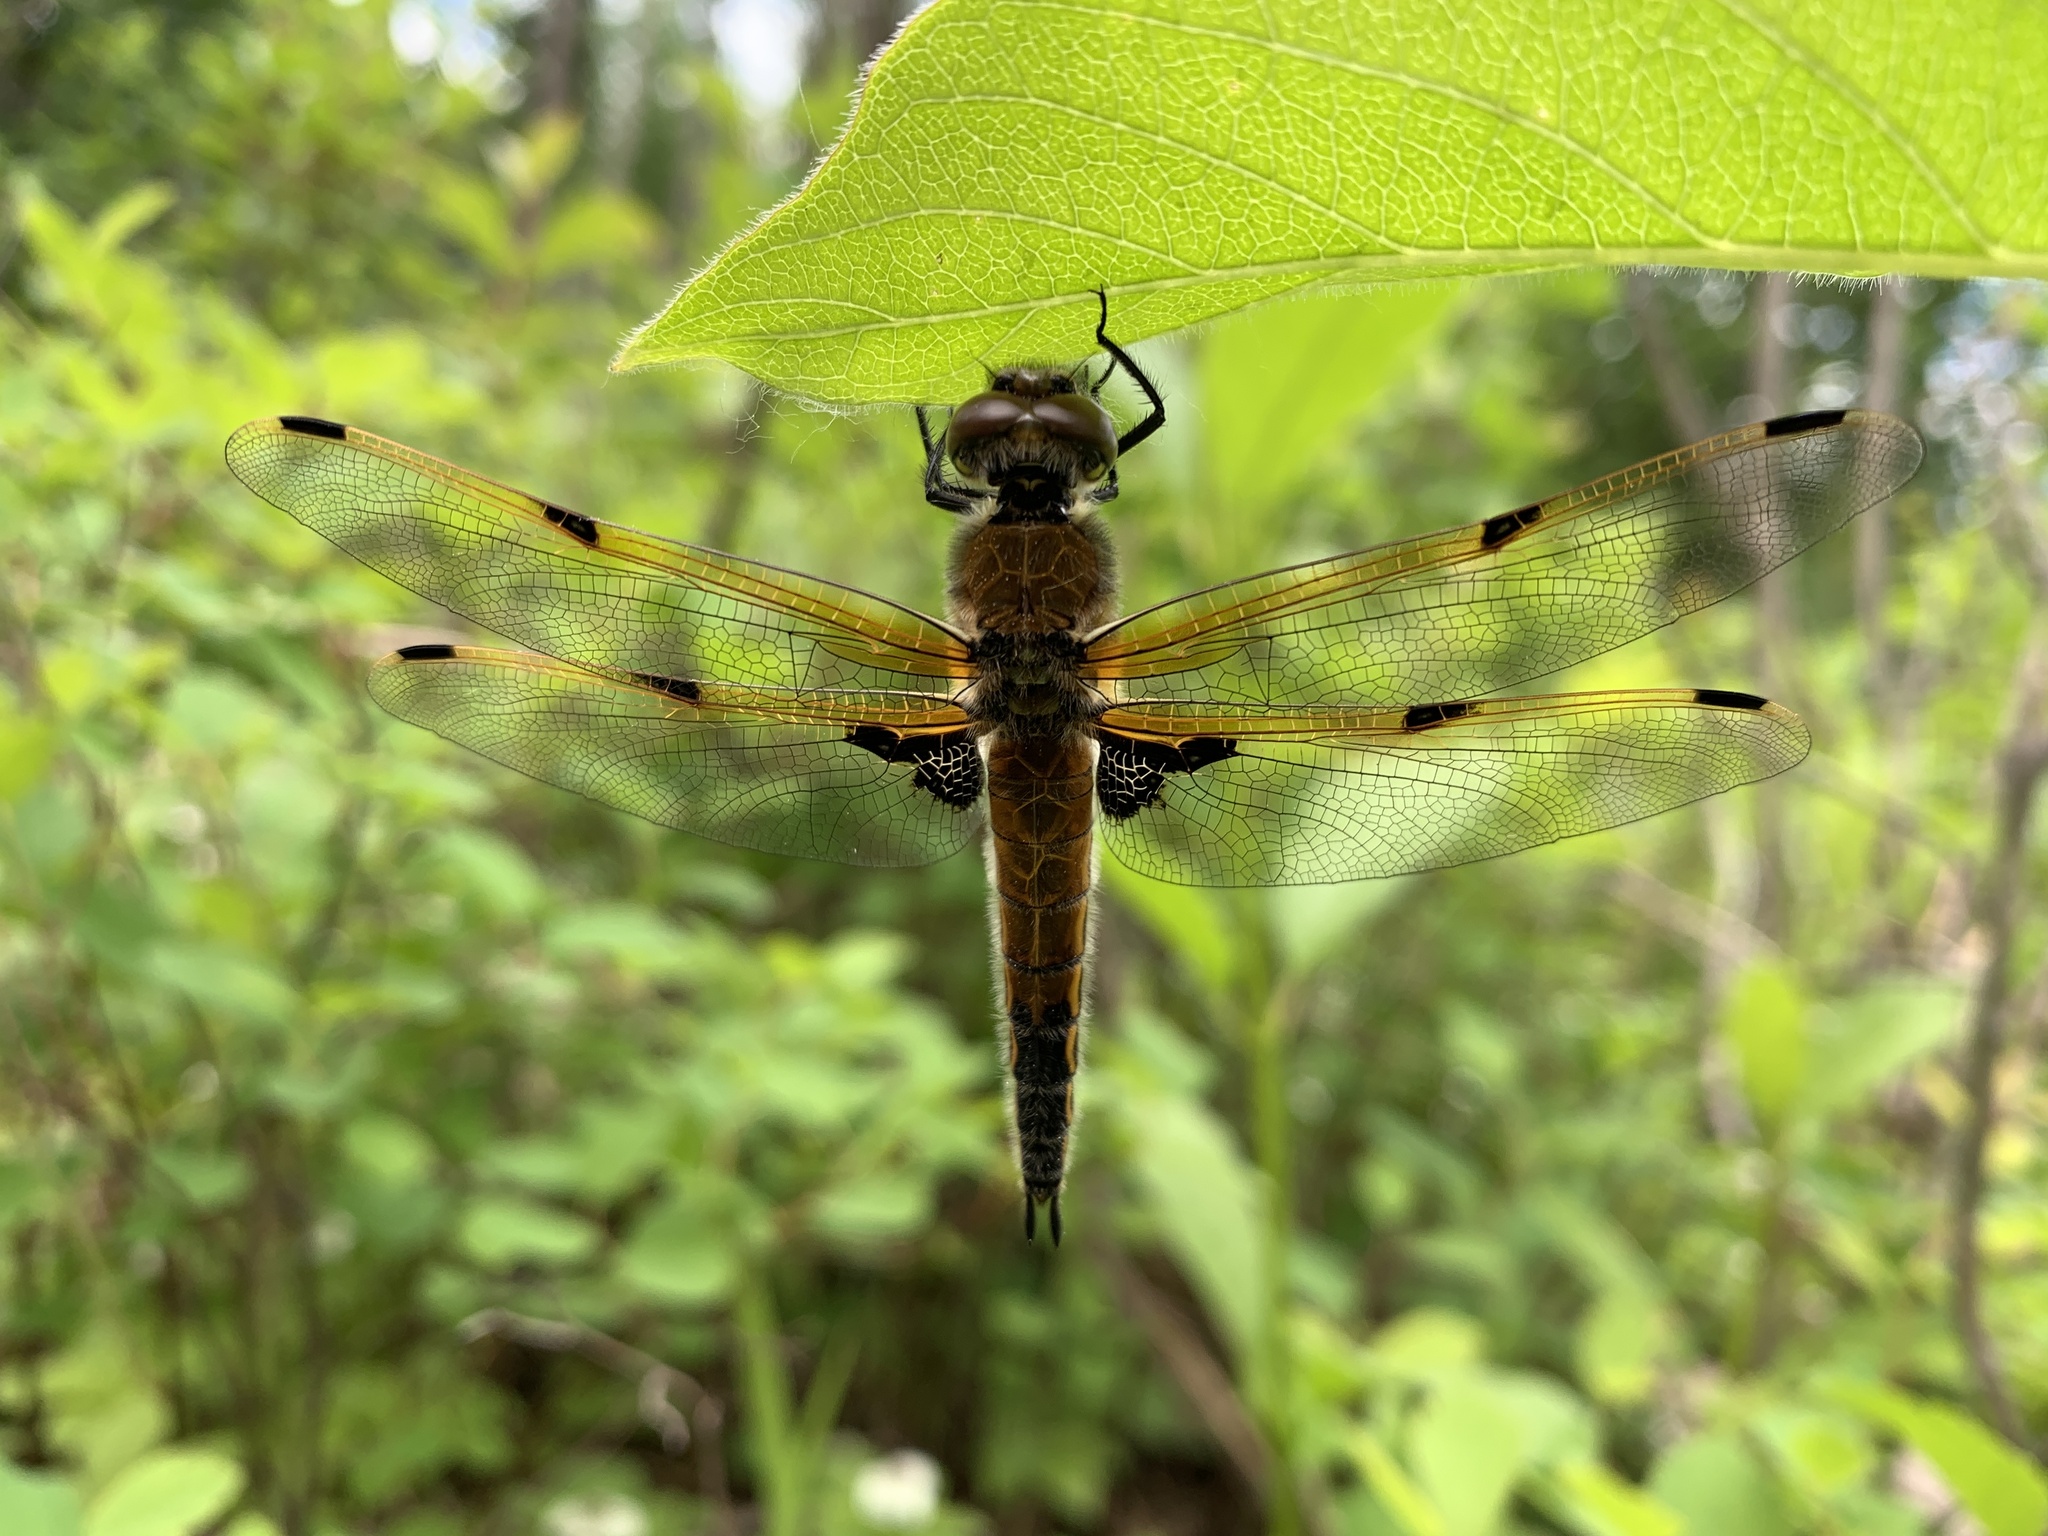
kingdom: Animalia
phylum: Arthropoda
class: Insecta
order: Odonata
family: Libellulidae
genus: Libellula
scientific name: Libellula quadrimaculata
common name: Four-spotted chaser
